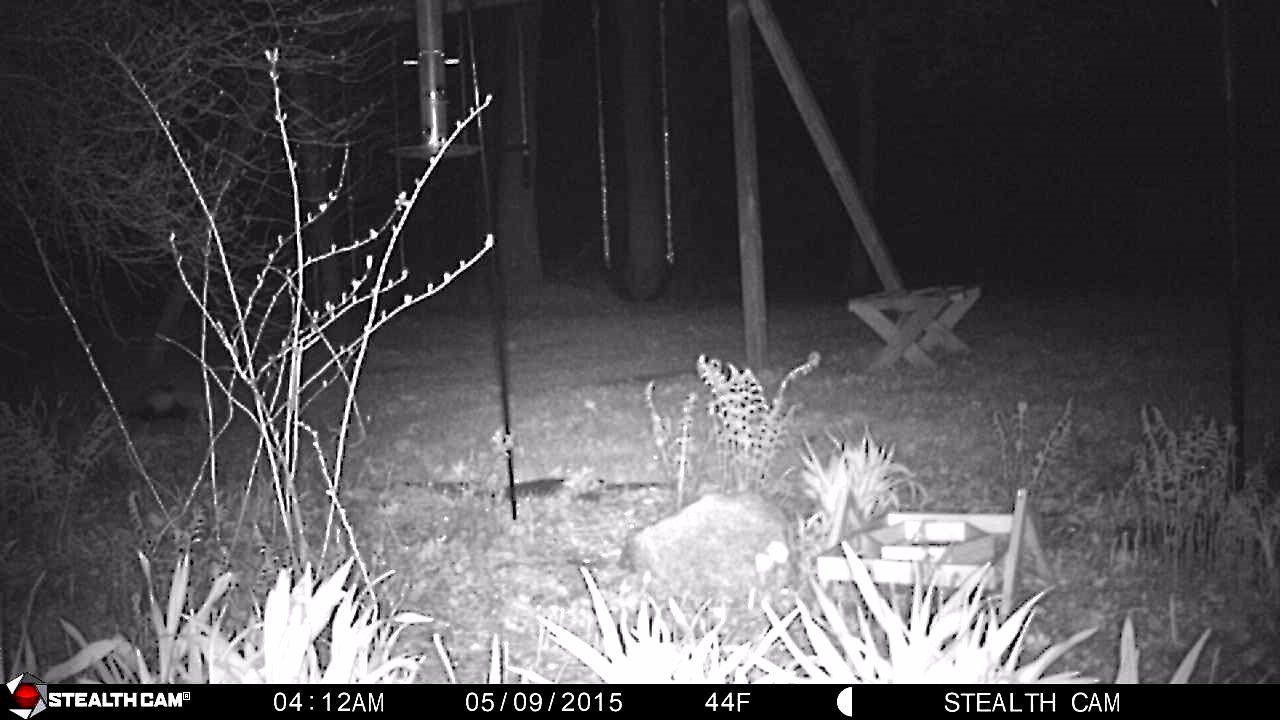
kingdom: Animalia
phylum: Chordata
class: Mammalia
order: Carnivora
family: Mephitidae
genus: Mephitis
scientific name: Mephitis mephitis
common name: Striped skunk
